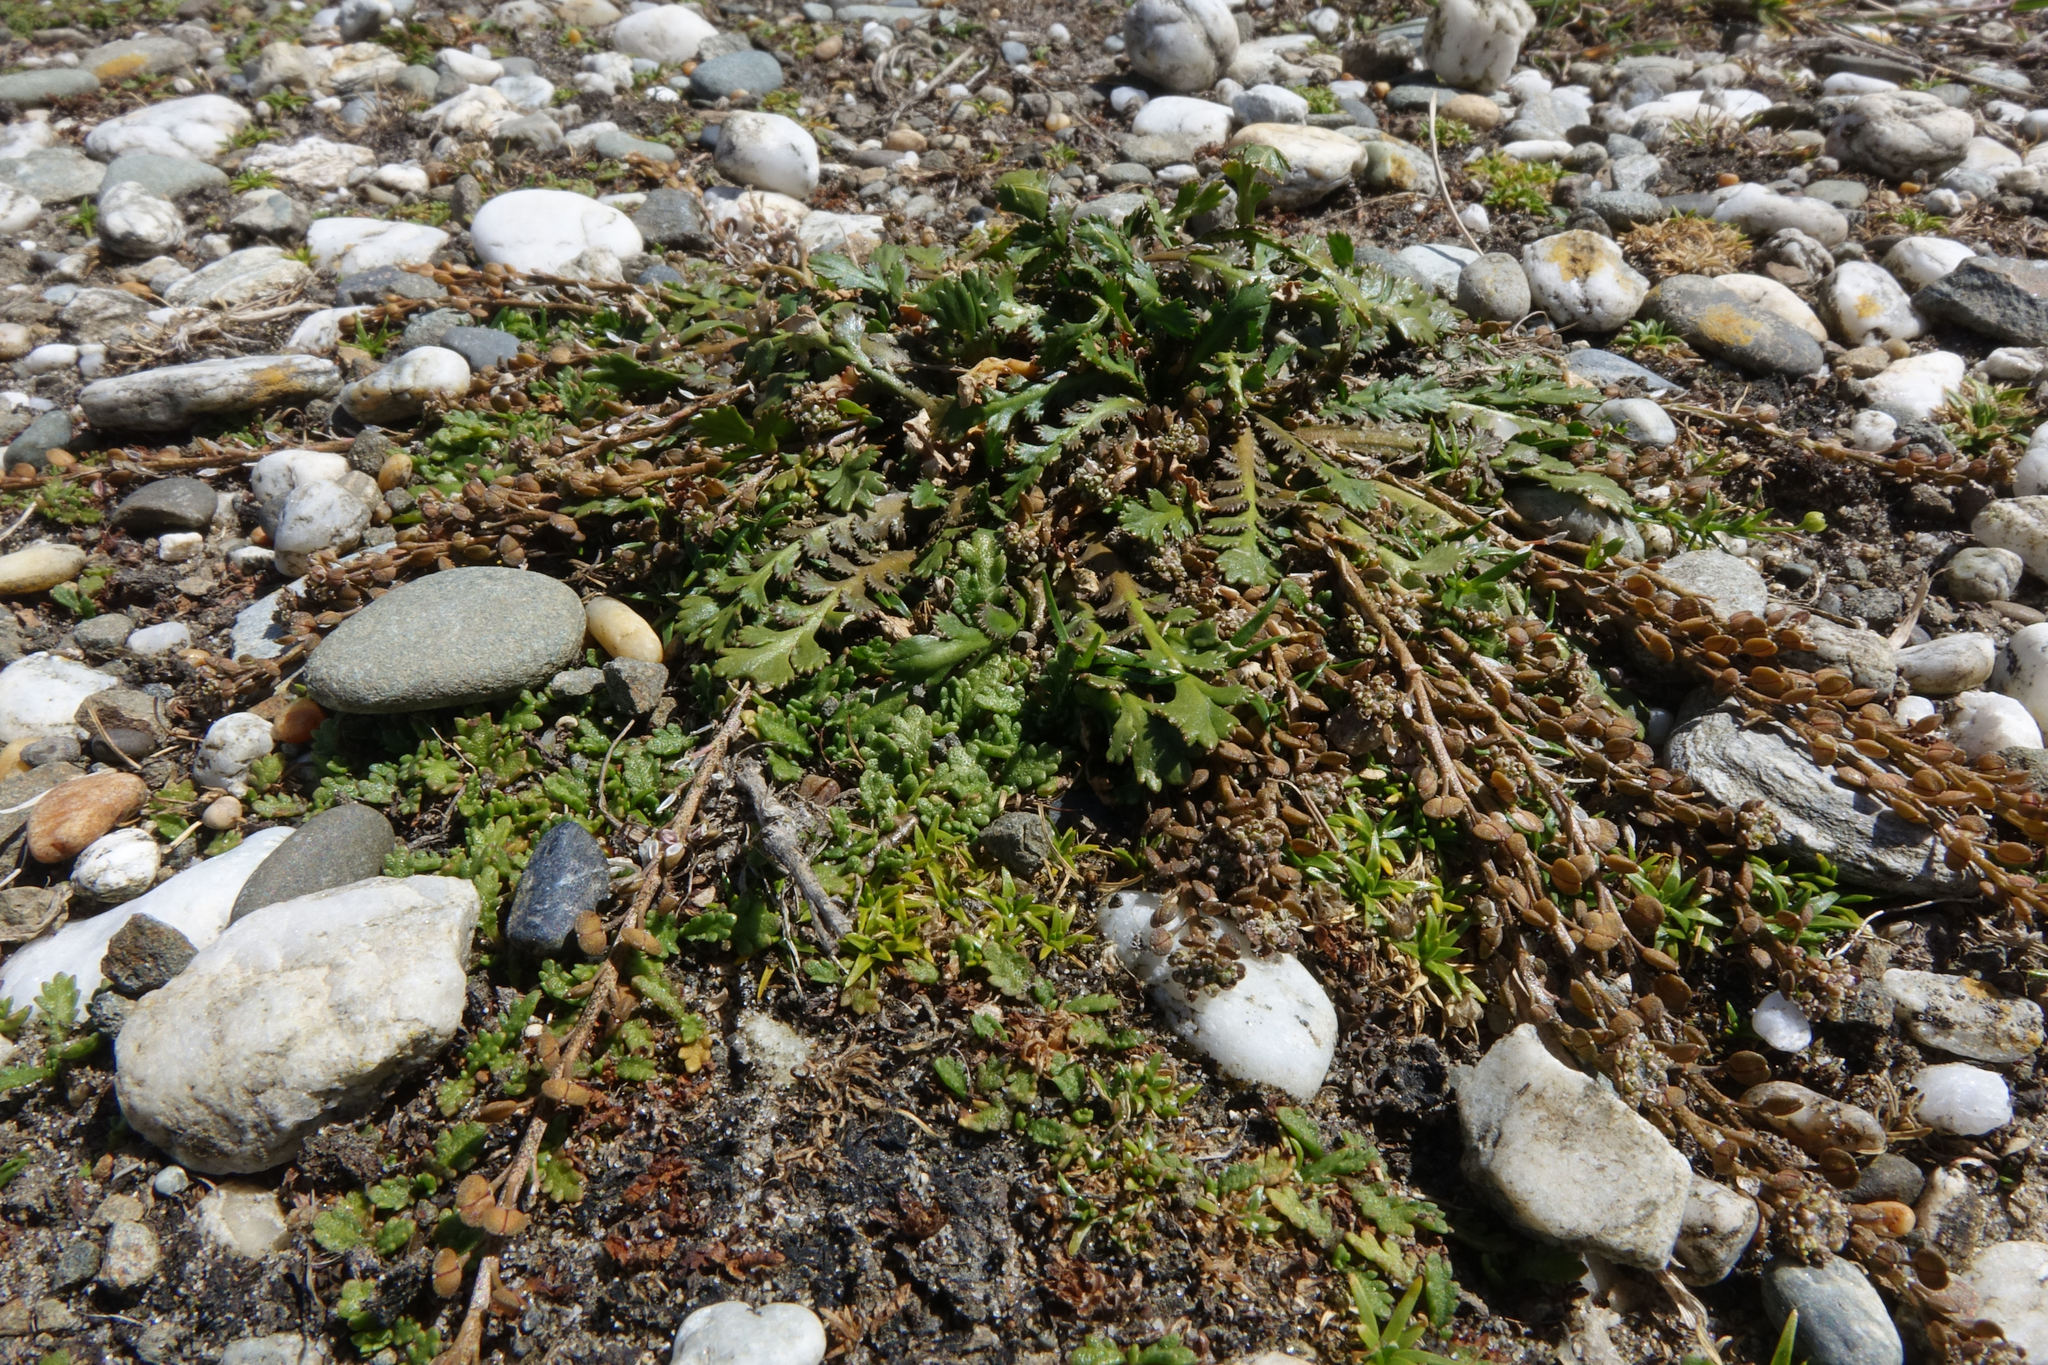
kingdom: Plantae
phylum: Tracheophyta
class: Magnoliopsida
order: Brassicales
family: Brassicaceae
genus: Lepidium
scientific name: Lepidium tenuicaule
